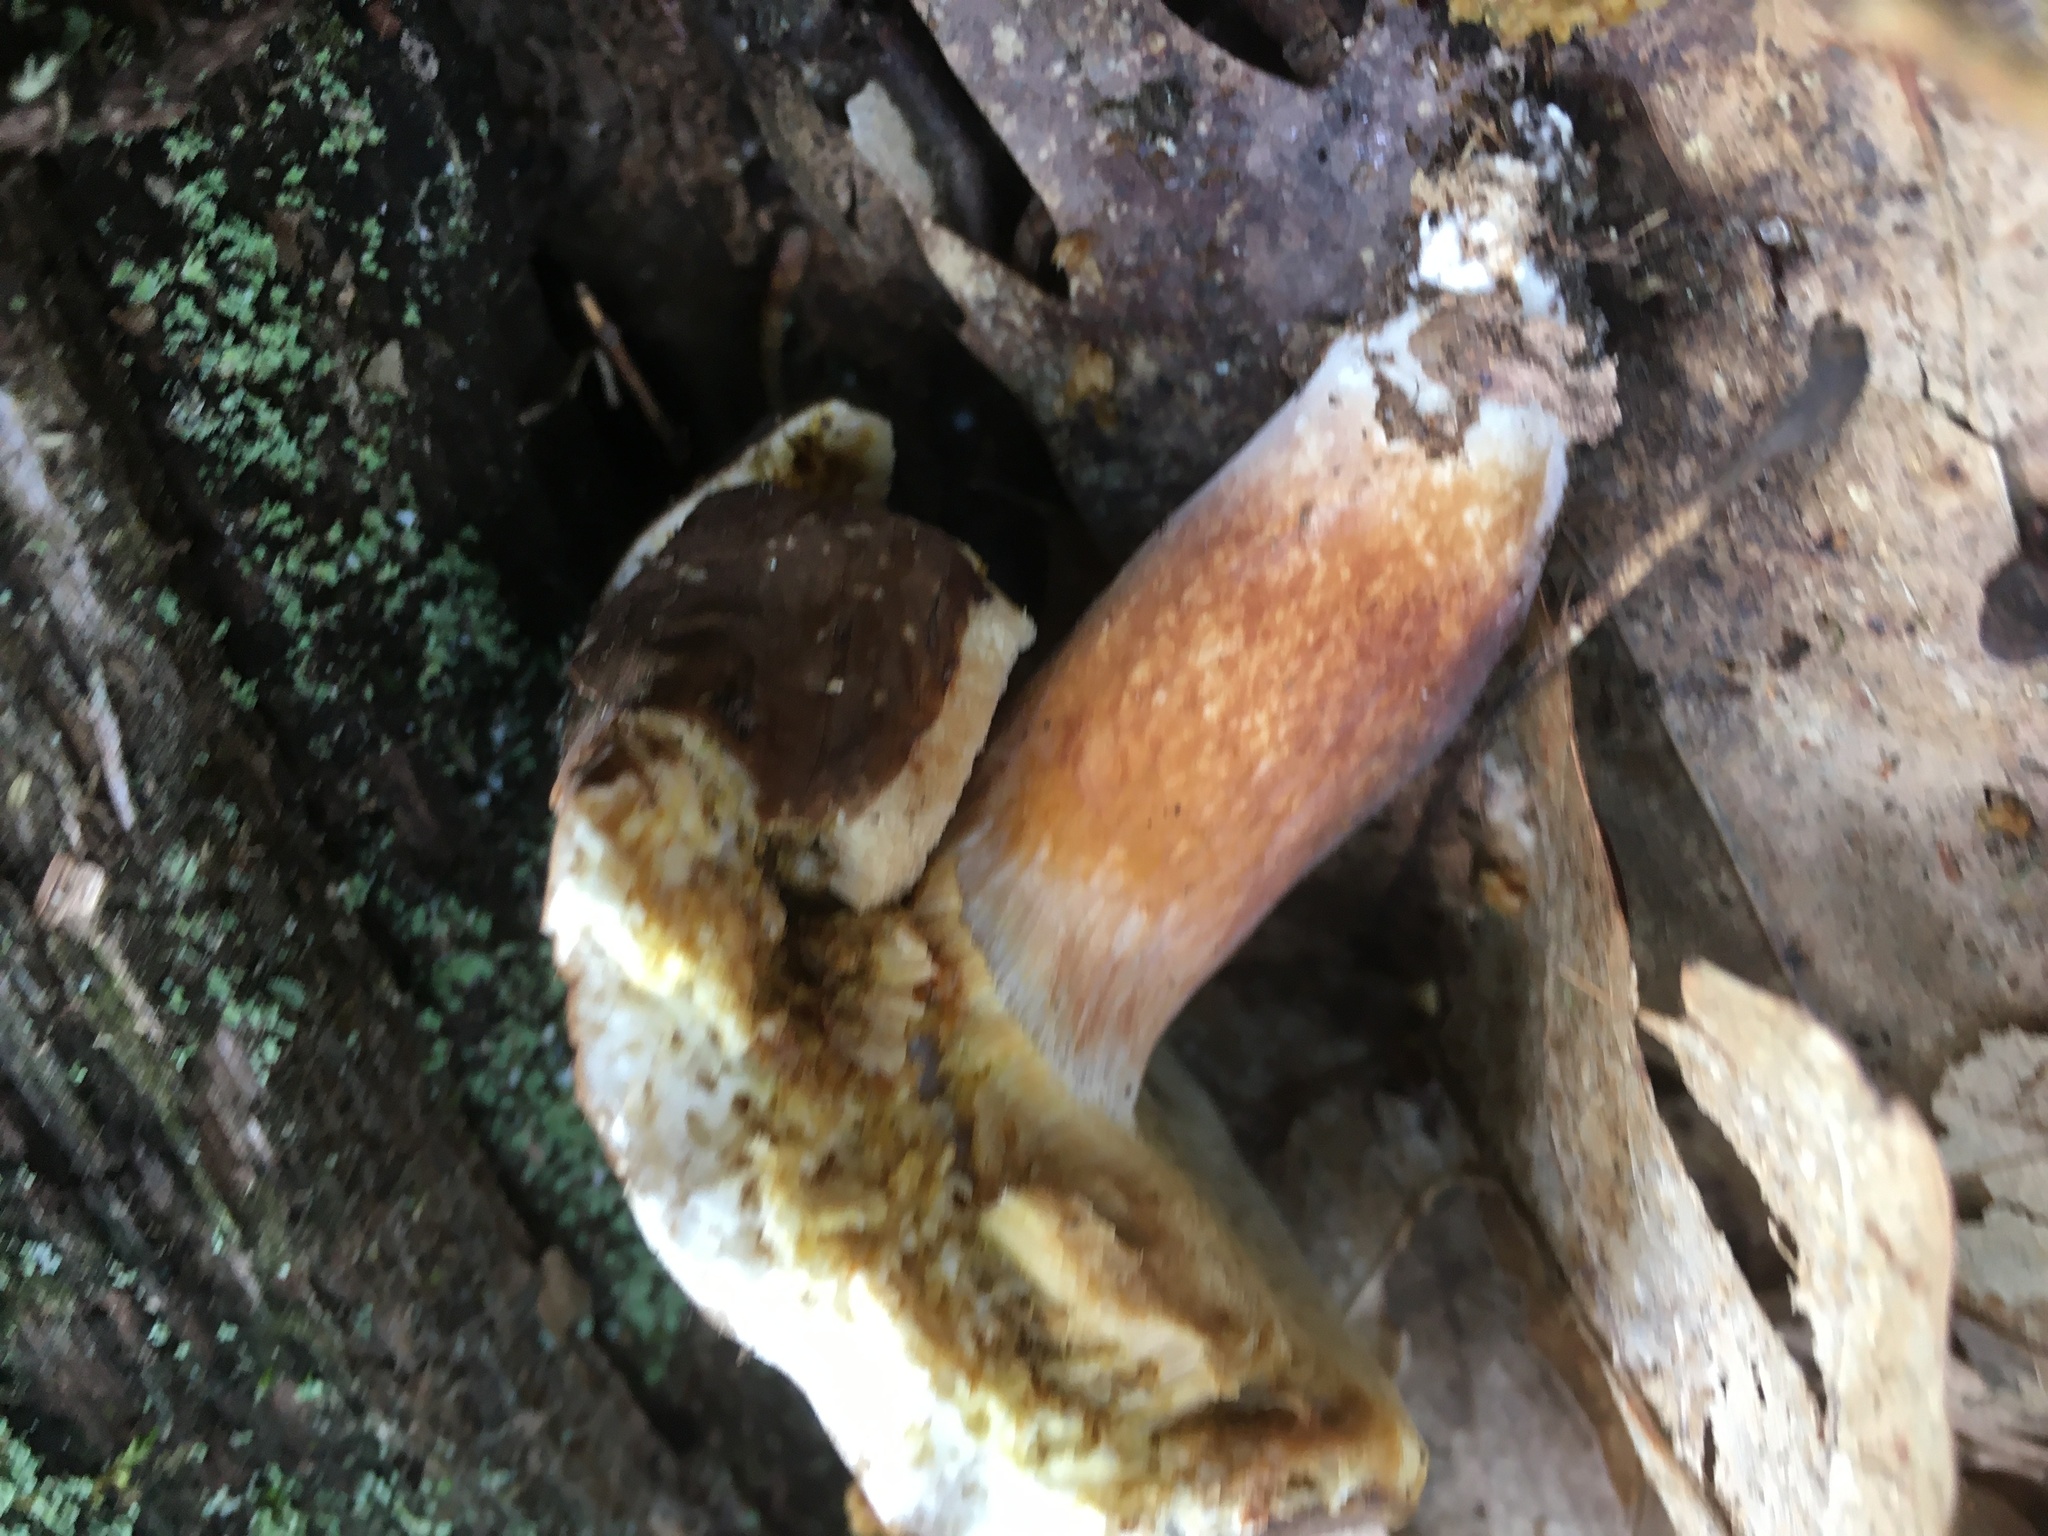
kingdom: Fungi
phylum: Basidiomycota
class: Agaricomycetes
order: Boletales
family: Boletaceae
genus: Xanthoconium
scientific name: Xanthoconium affine
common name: Spotted bolete
